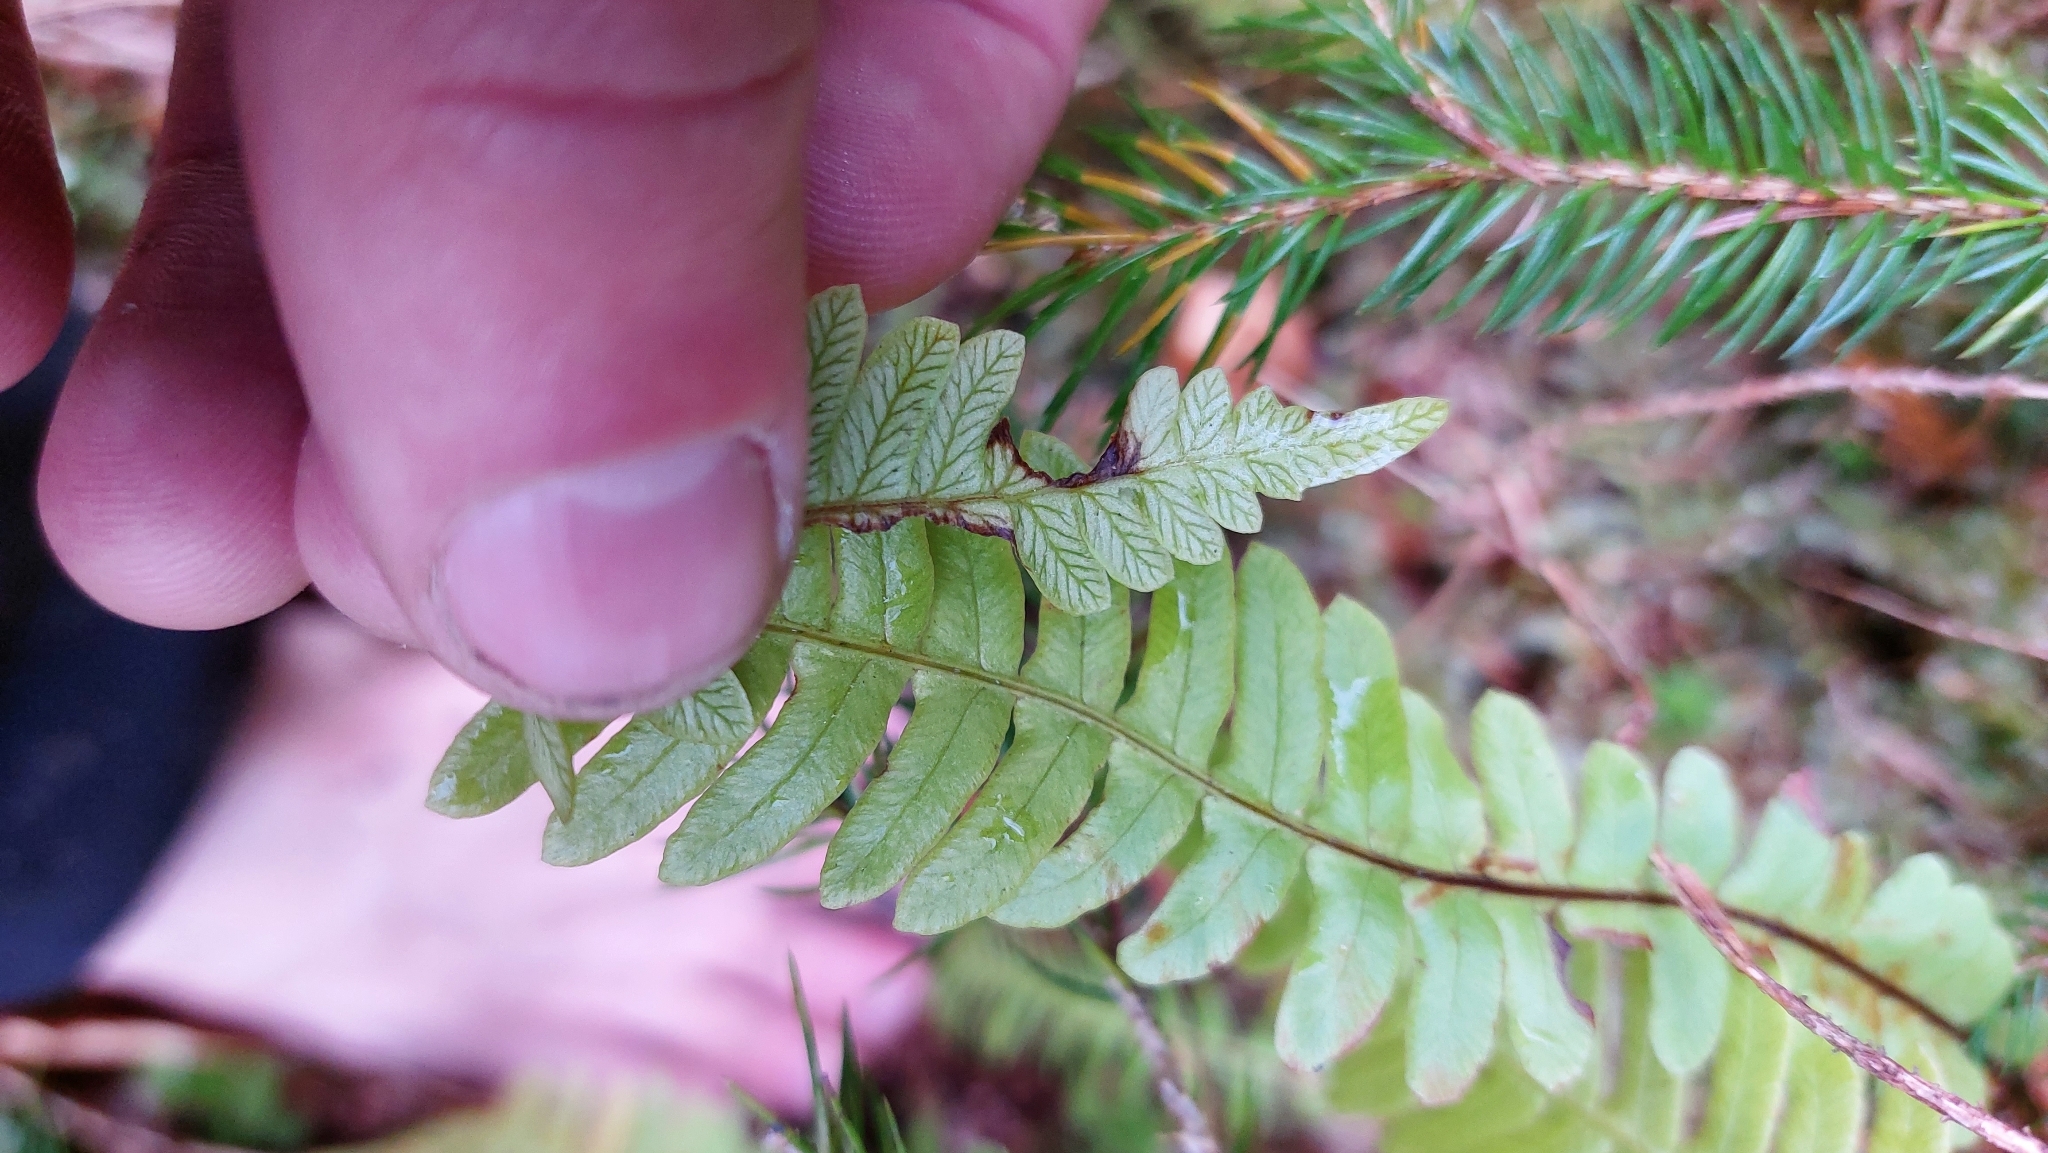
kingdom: Plantae
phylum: Tracheophyta
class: Polypodiopsida
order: Polypodiales
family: Blechnaceae
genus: Struthiopteris
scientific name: Struthiopteris spicant
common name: Deer fern
